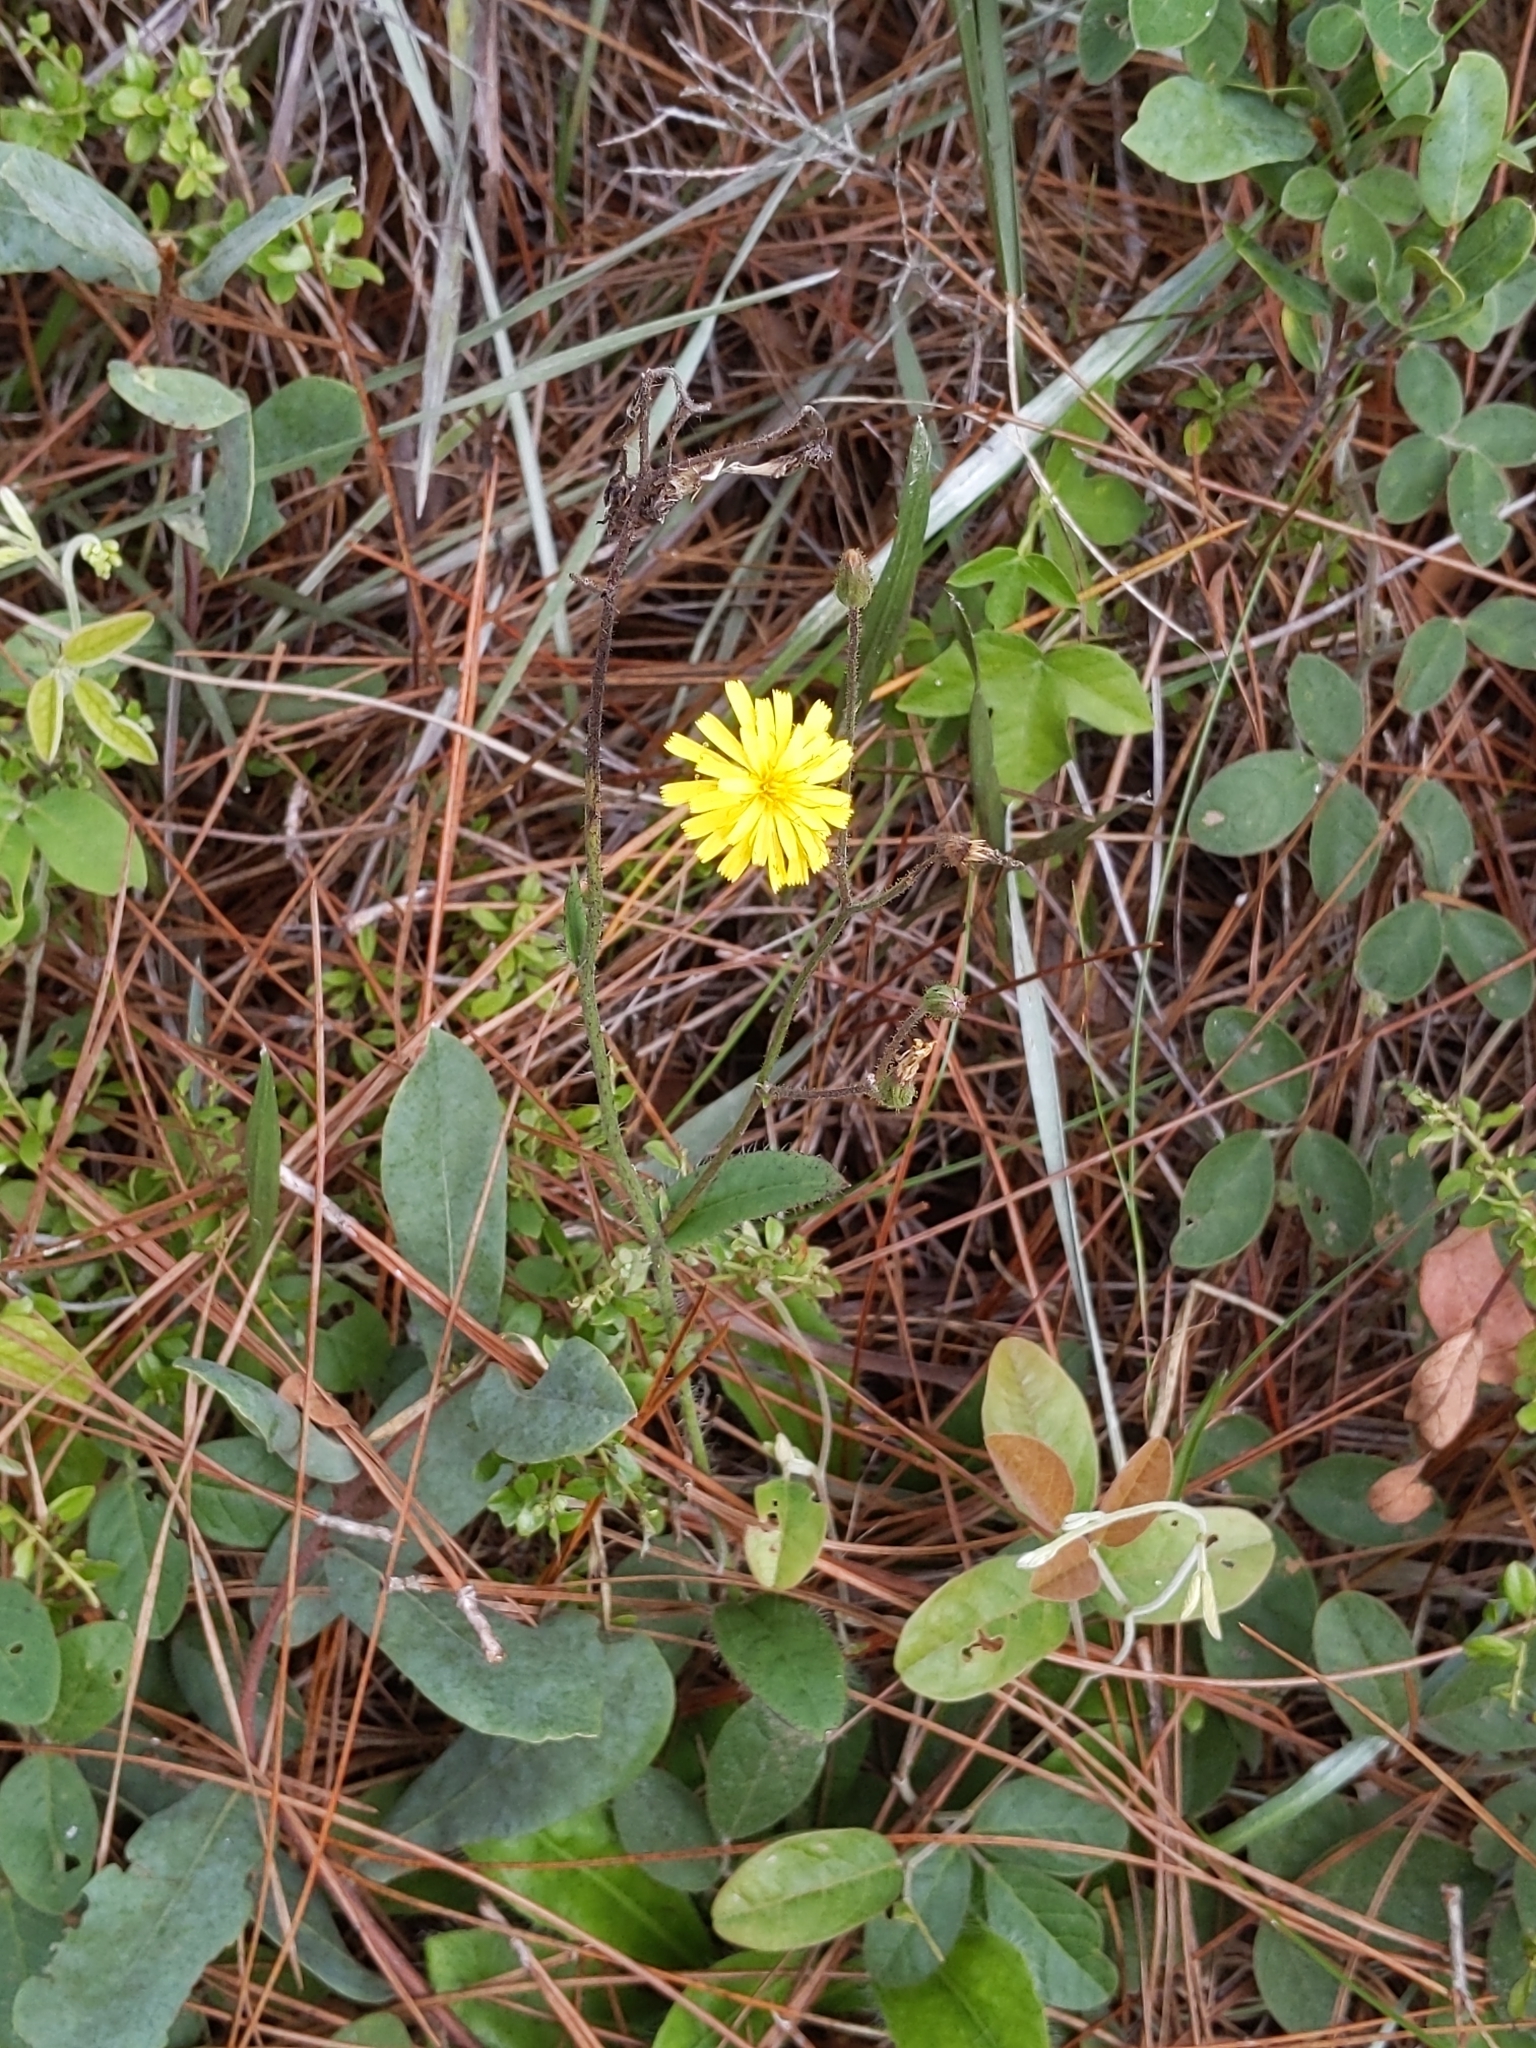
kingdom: Plantae
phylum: Tracheophyta
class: Magnoliopsida
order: Asterales
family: Asteraceae
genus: Hieracium
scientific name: Hieracium gronovii
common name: Beaked hawkweed
